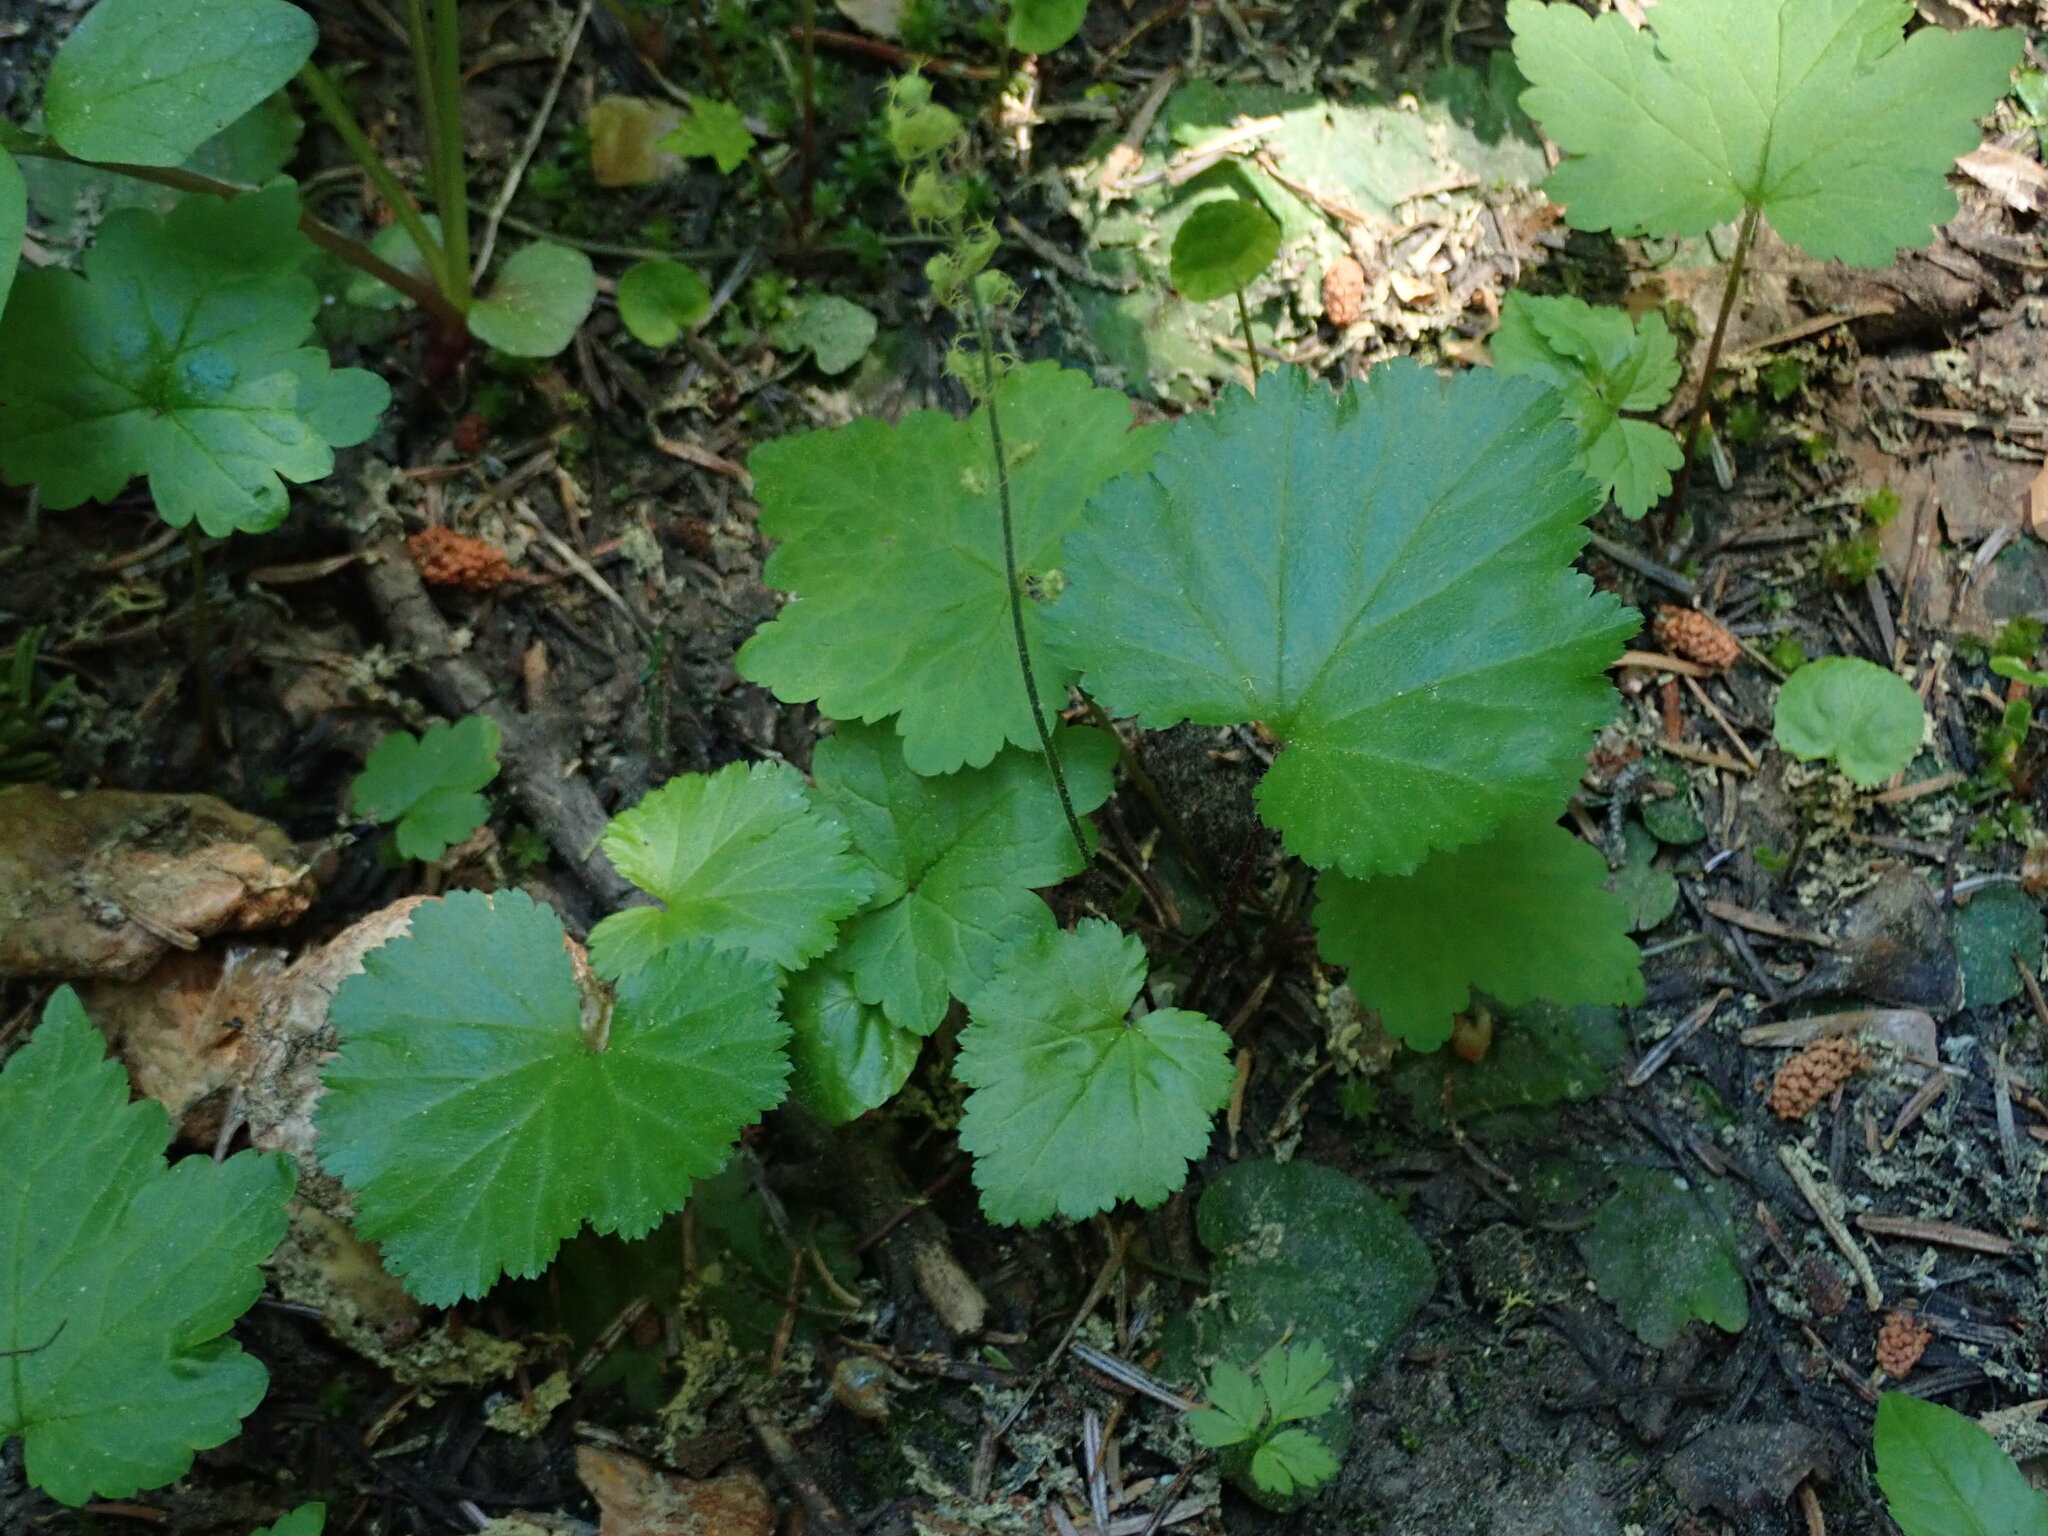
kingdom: Plantae
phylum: Tracheophyta
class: Magnoliopsida
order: Saxifragales
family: Saxifragaceae
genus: Brewerimitella
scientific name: Brewerimitella breweri
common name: Brewer's bishop's-cap
